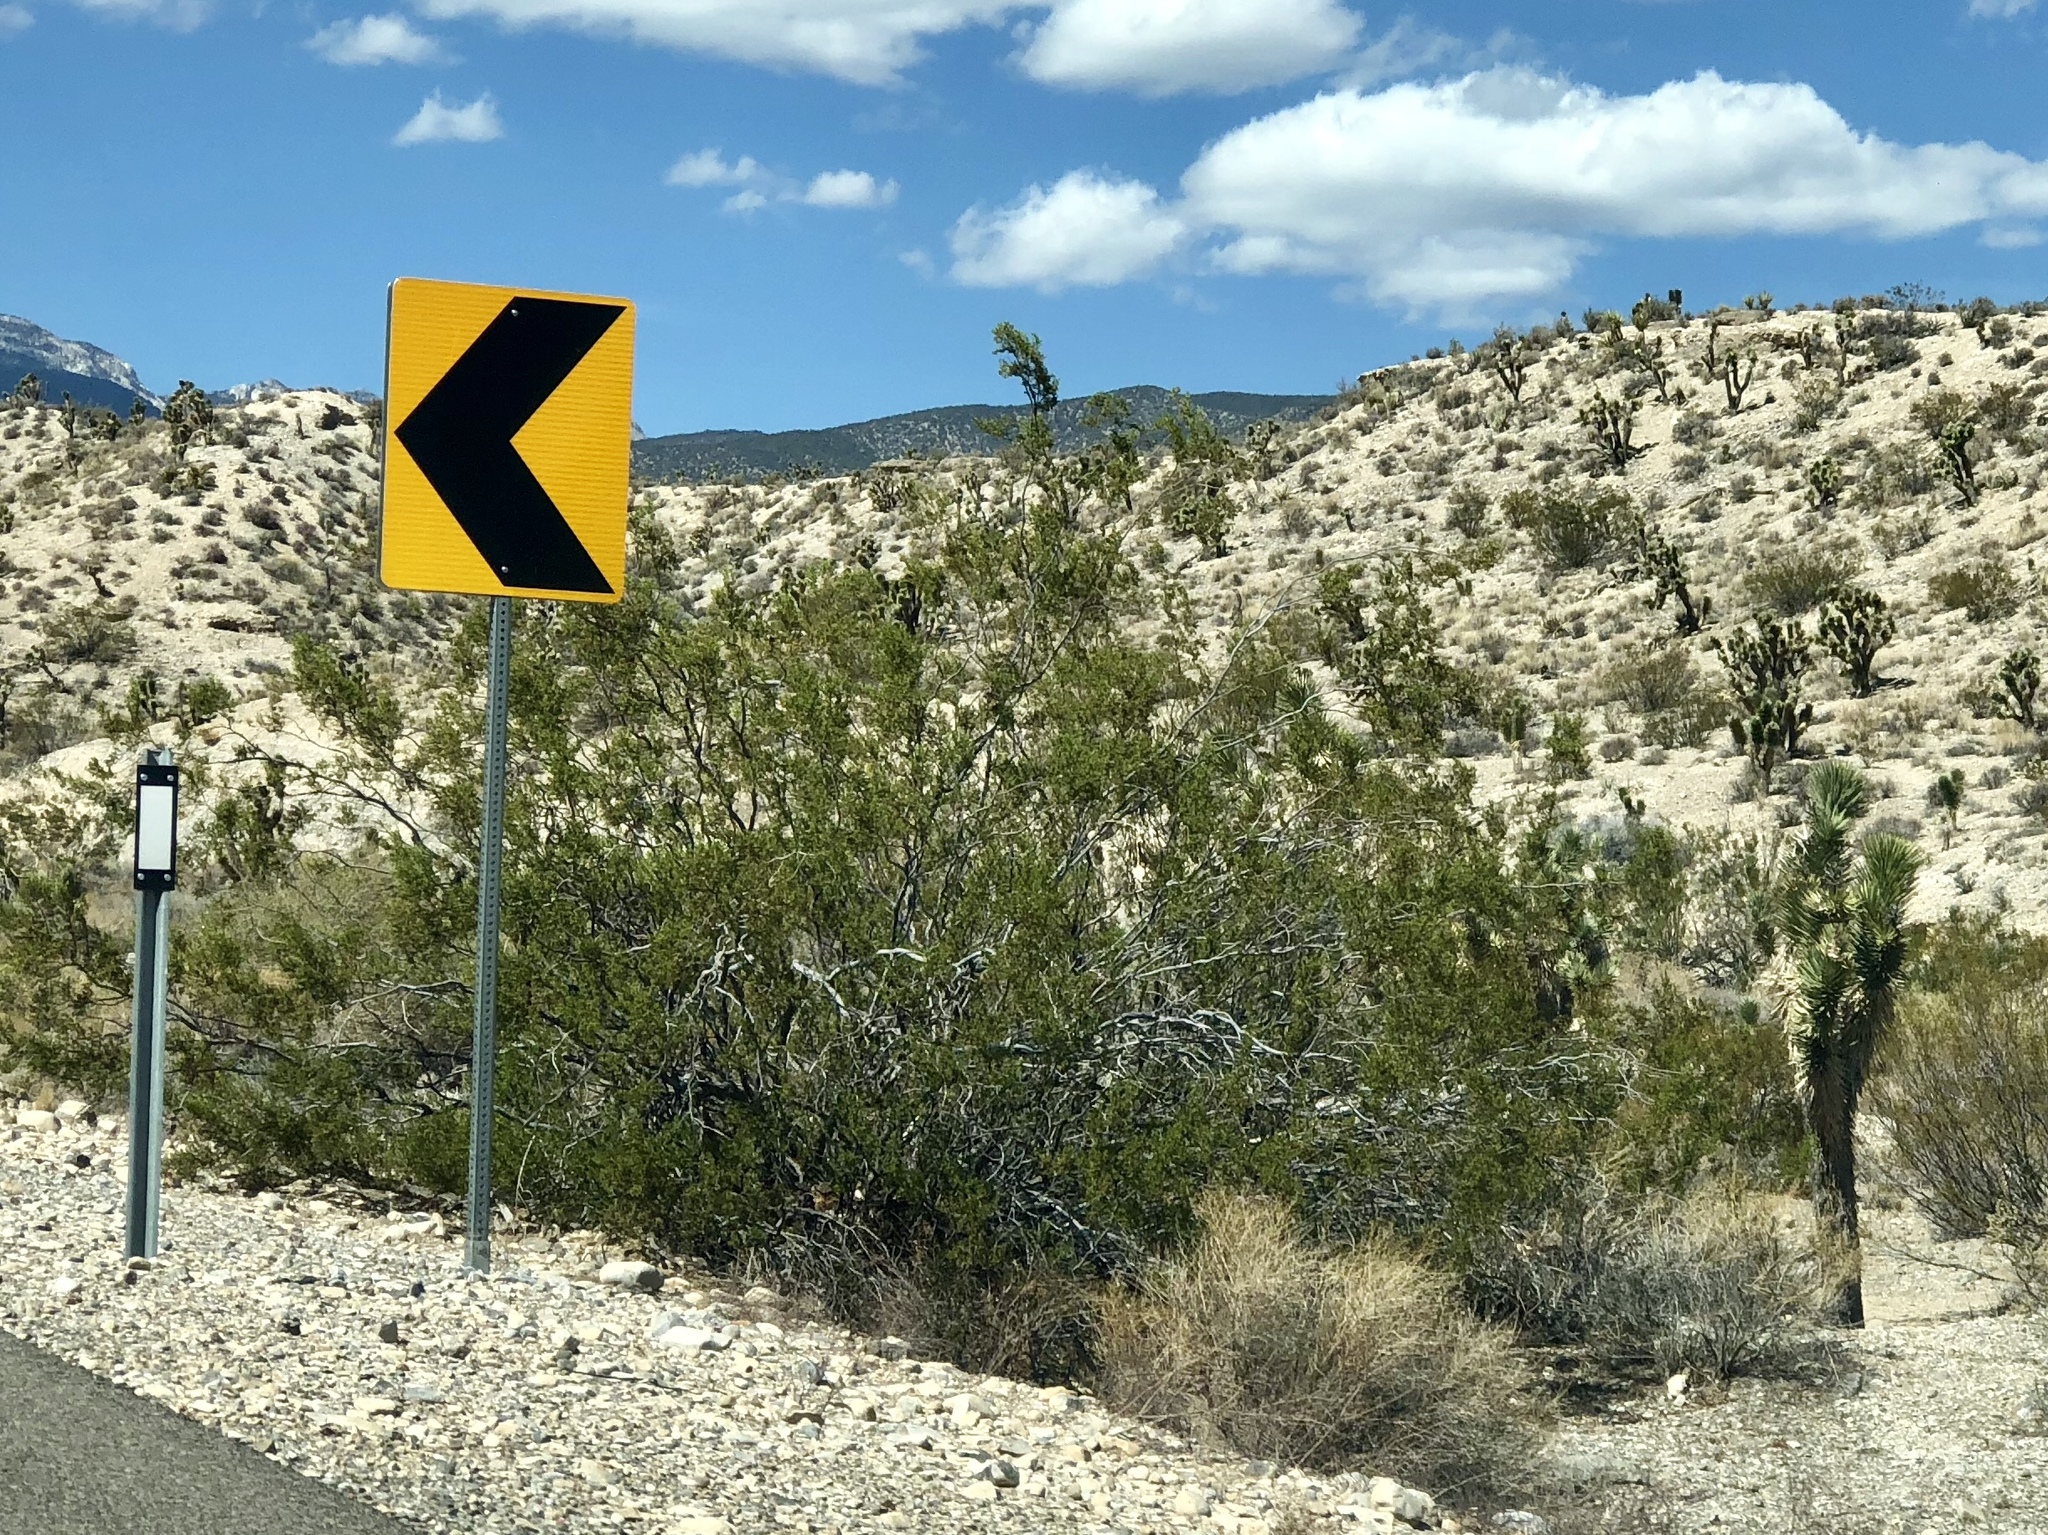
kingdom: Plantae
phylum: Tracheophyta
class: Magnoliopsida
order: Zygophyllales
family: Zygophyllaceae
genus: Larrea
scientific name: Larrea tridentata
